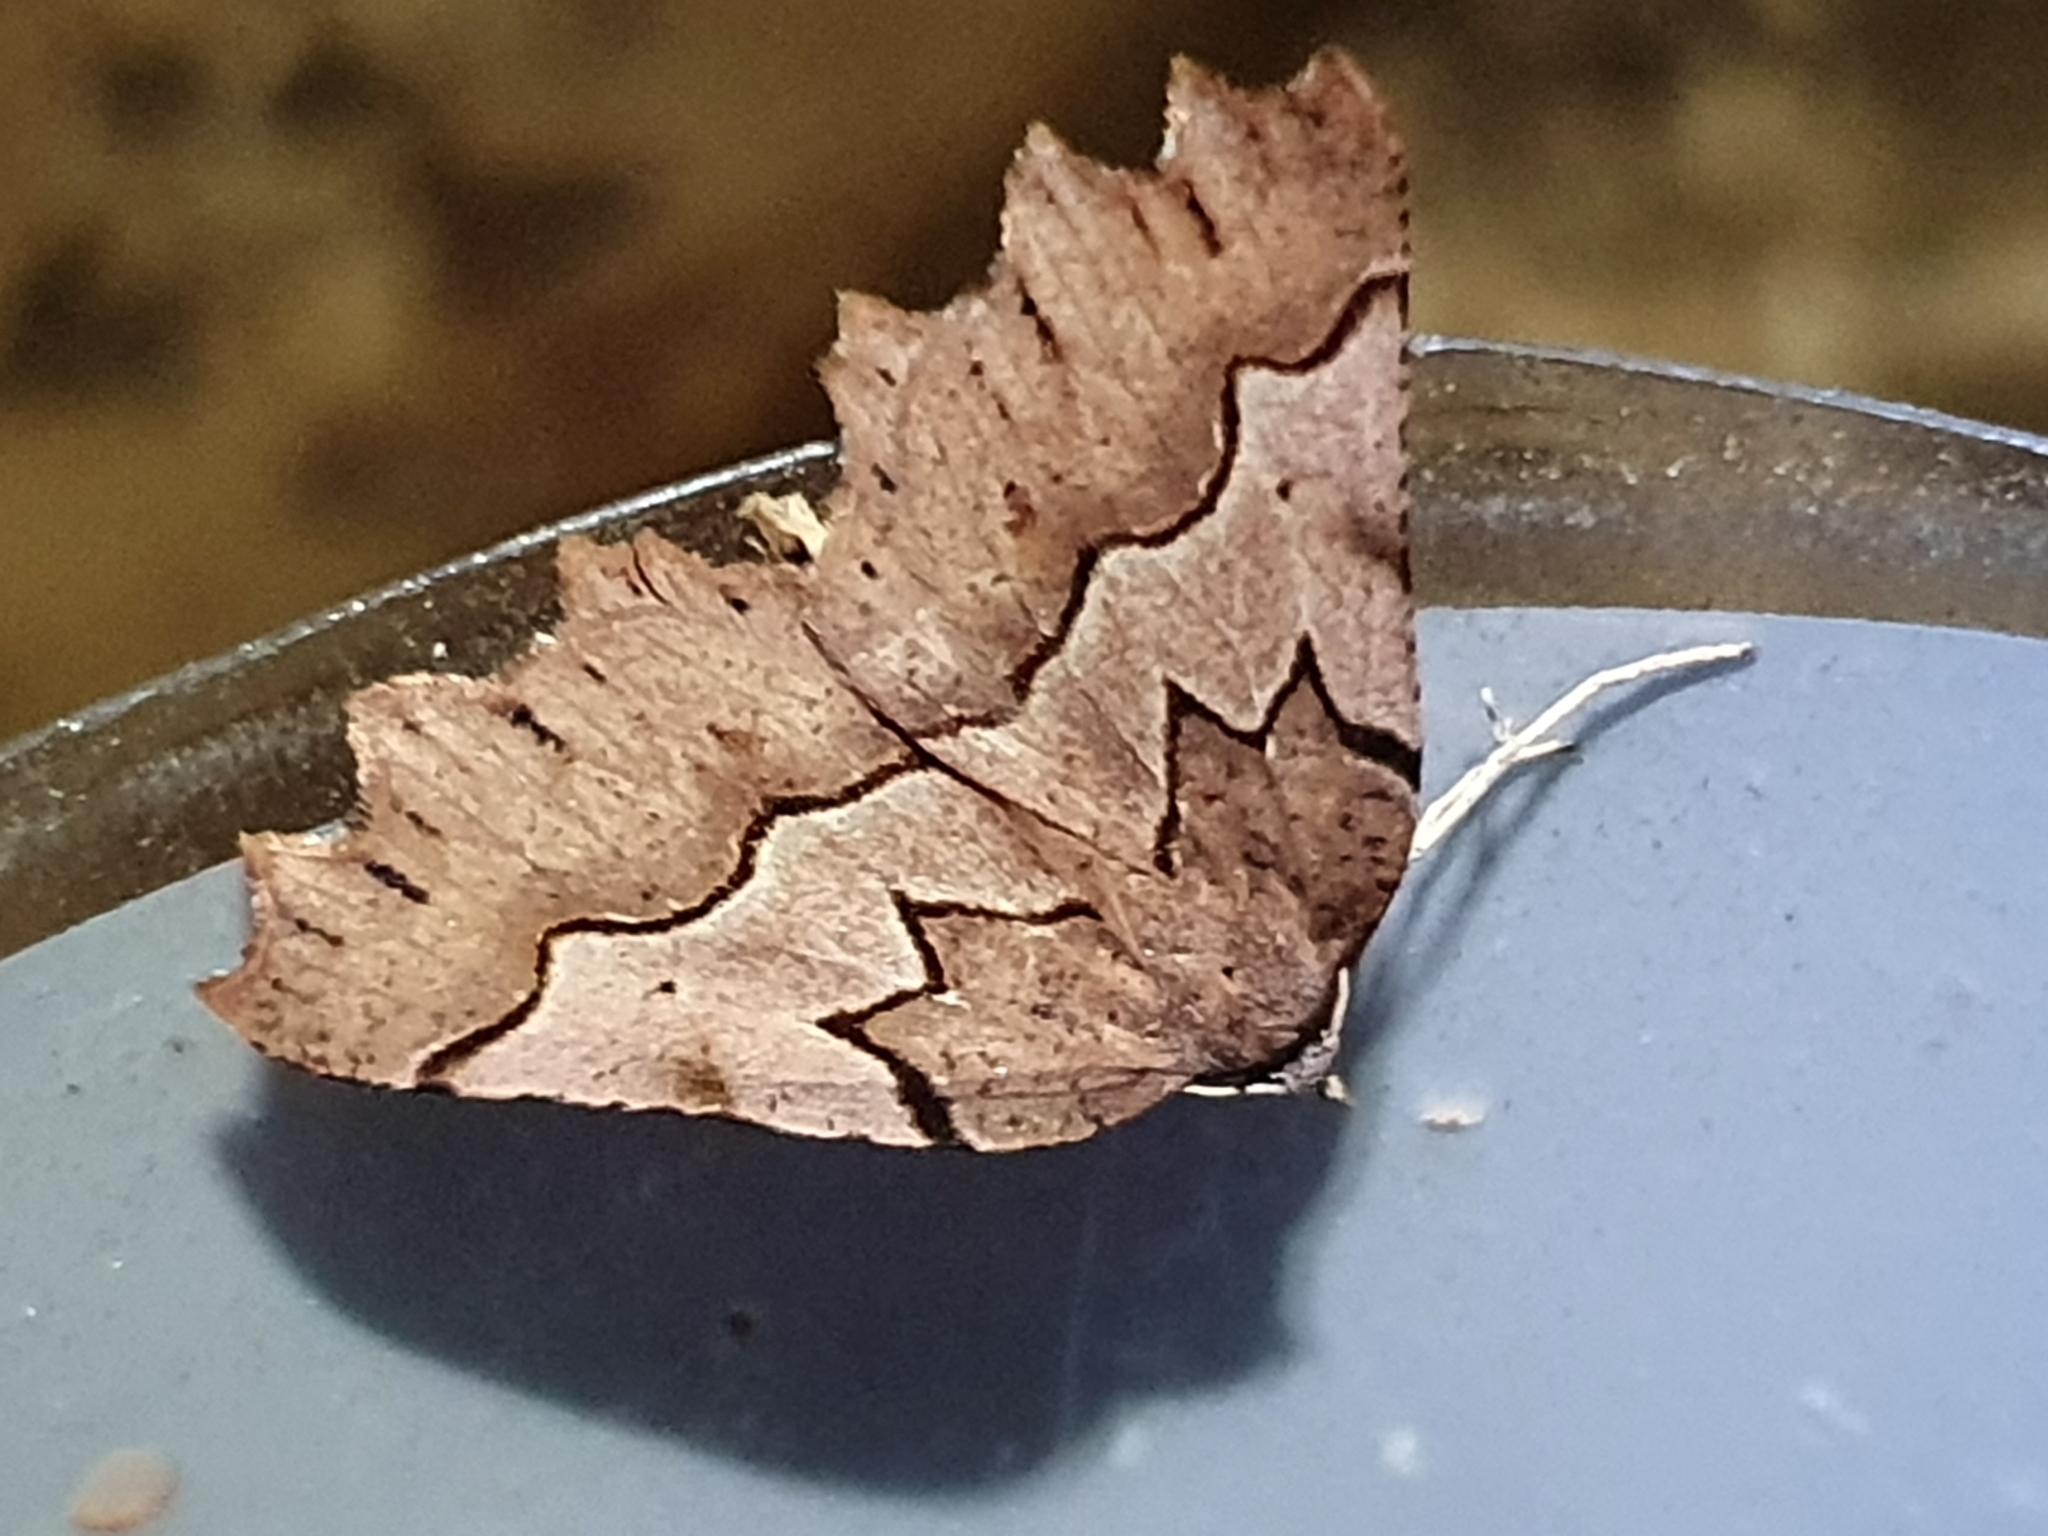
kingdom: Animalia
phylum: Arthropoda
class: Insecta
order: Lepidoptera
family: Geometridae
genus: Ischalis
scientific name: Ischalis fortinata
